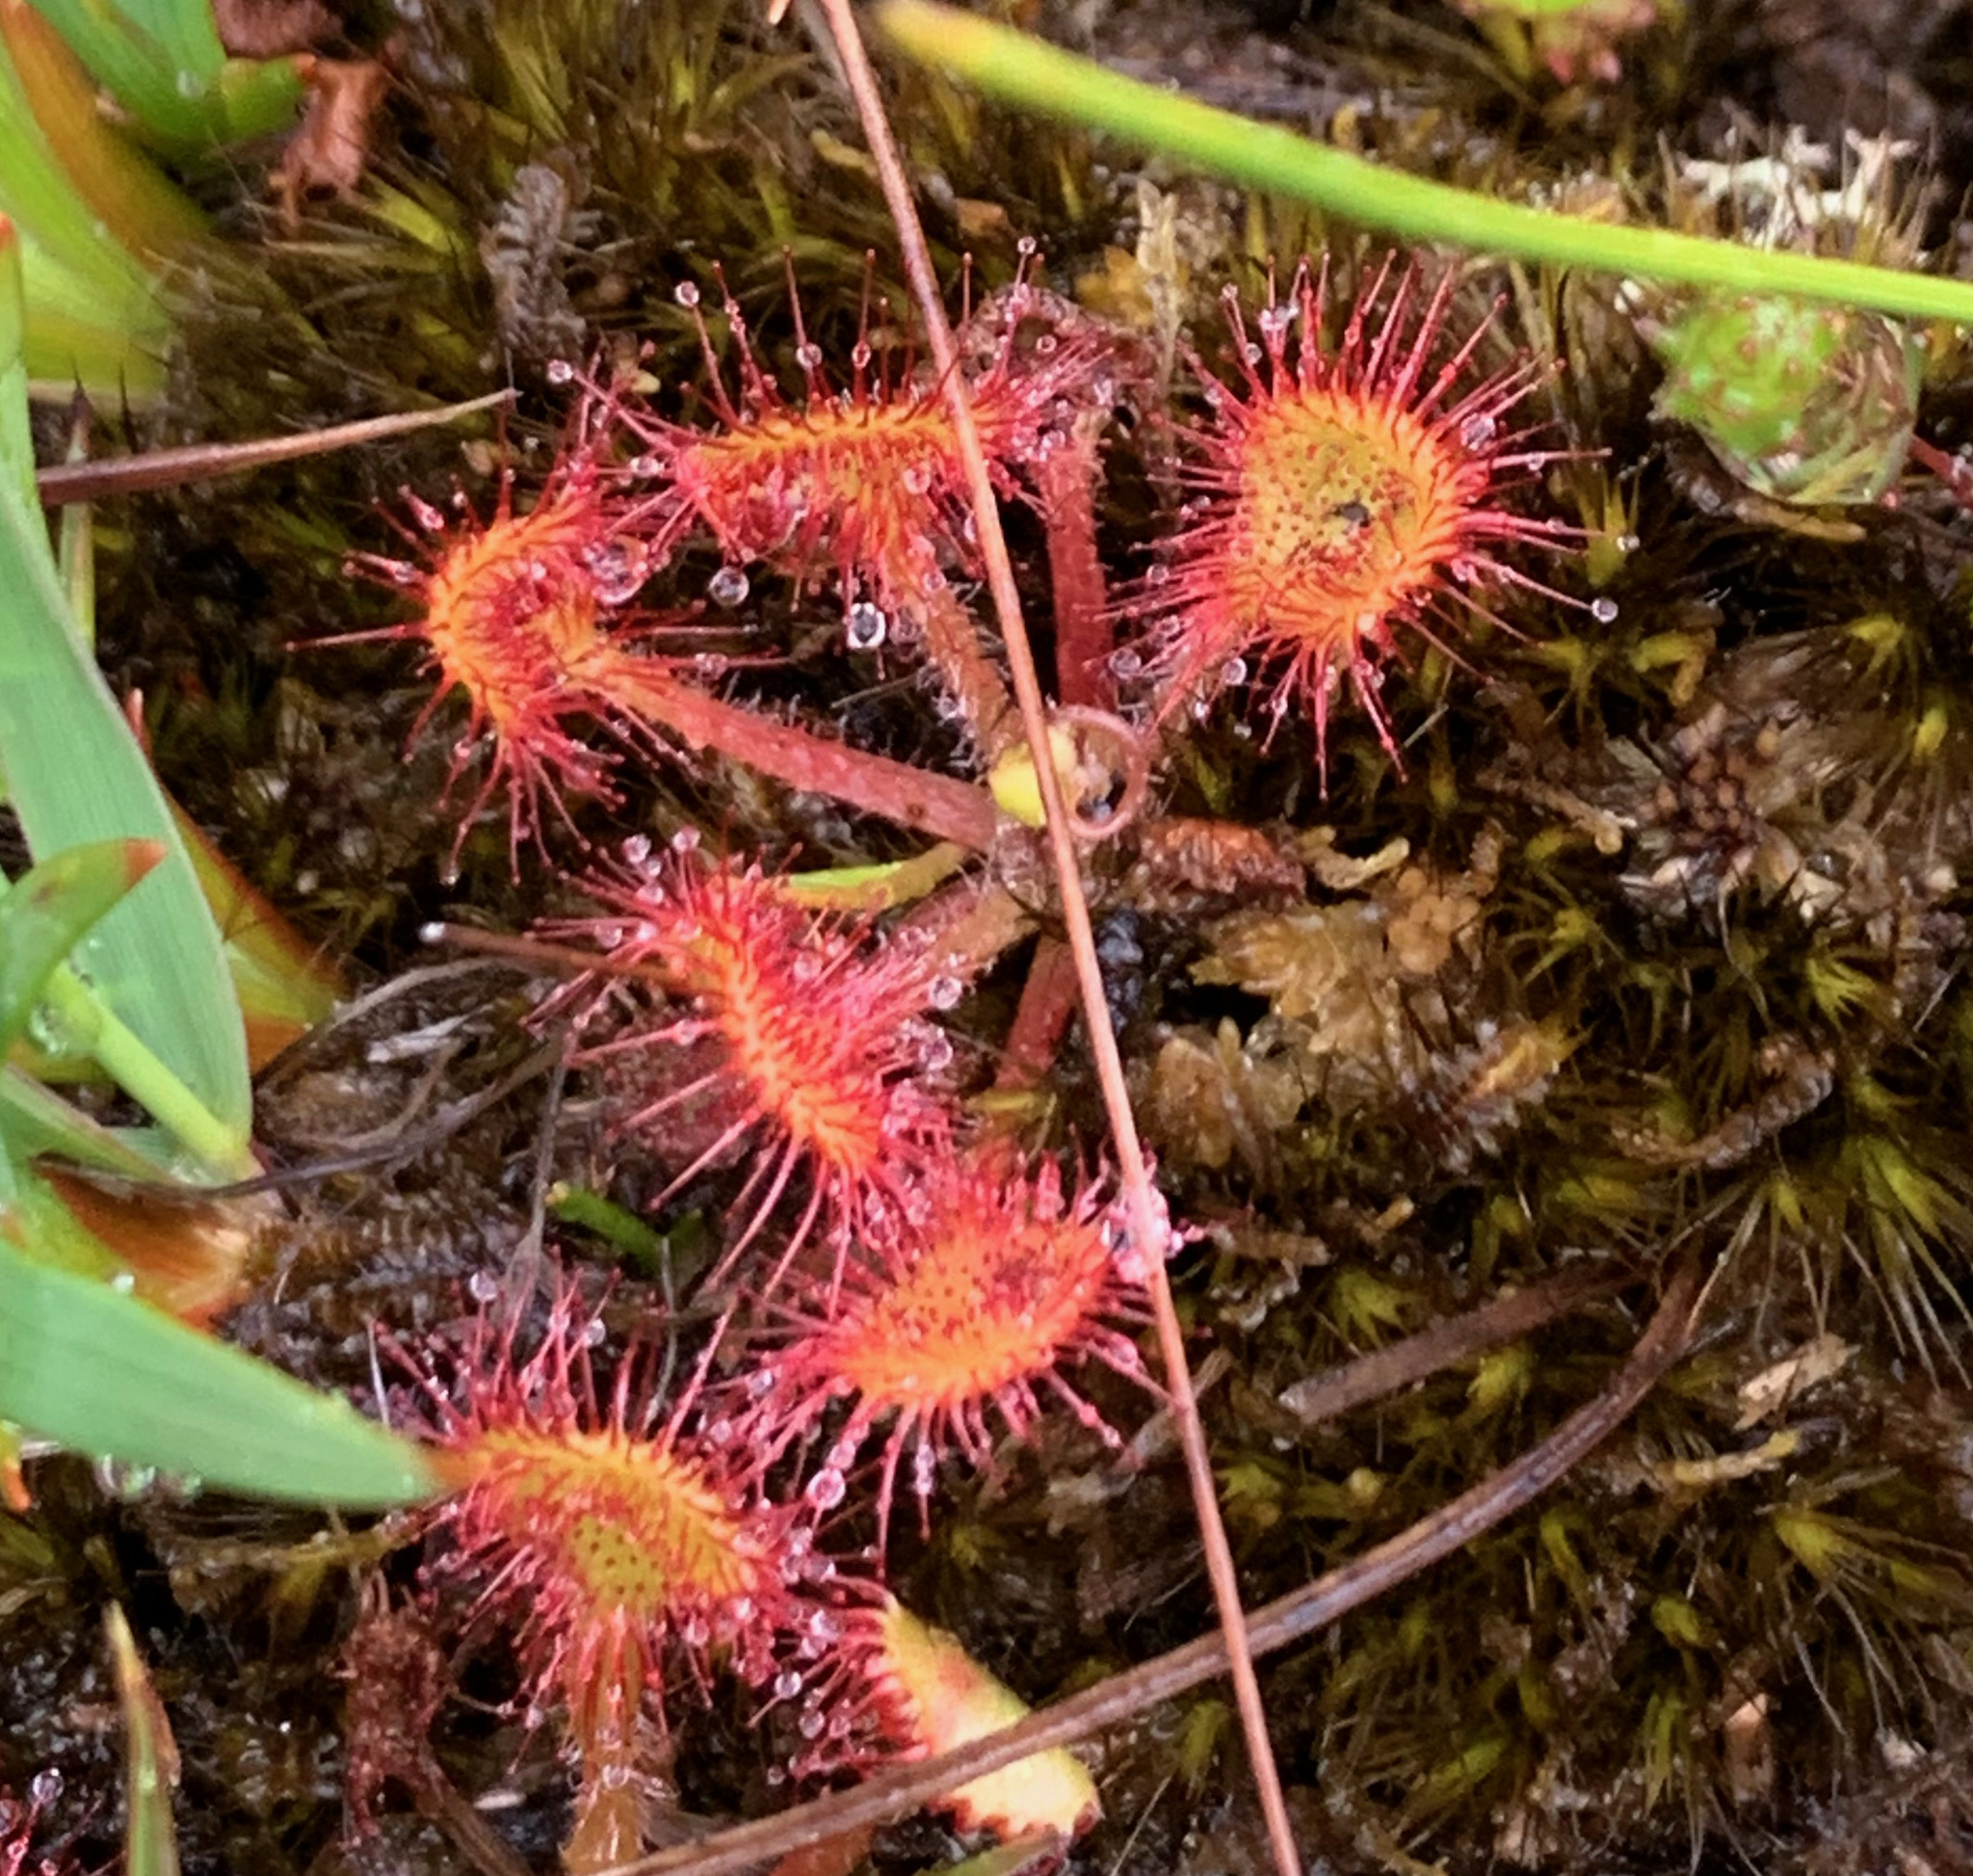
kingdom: Plantae
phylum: Tracheophyta
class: Magnoliopsida
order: Caryophyllales
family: Droseraceae
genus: Drosera
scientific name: Drosera rotundifolia
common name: Round-leaved sundew
